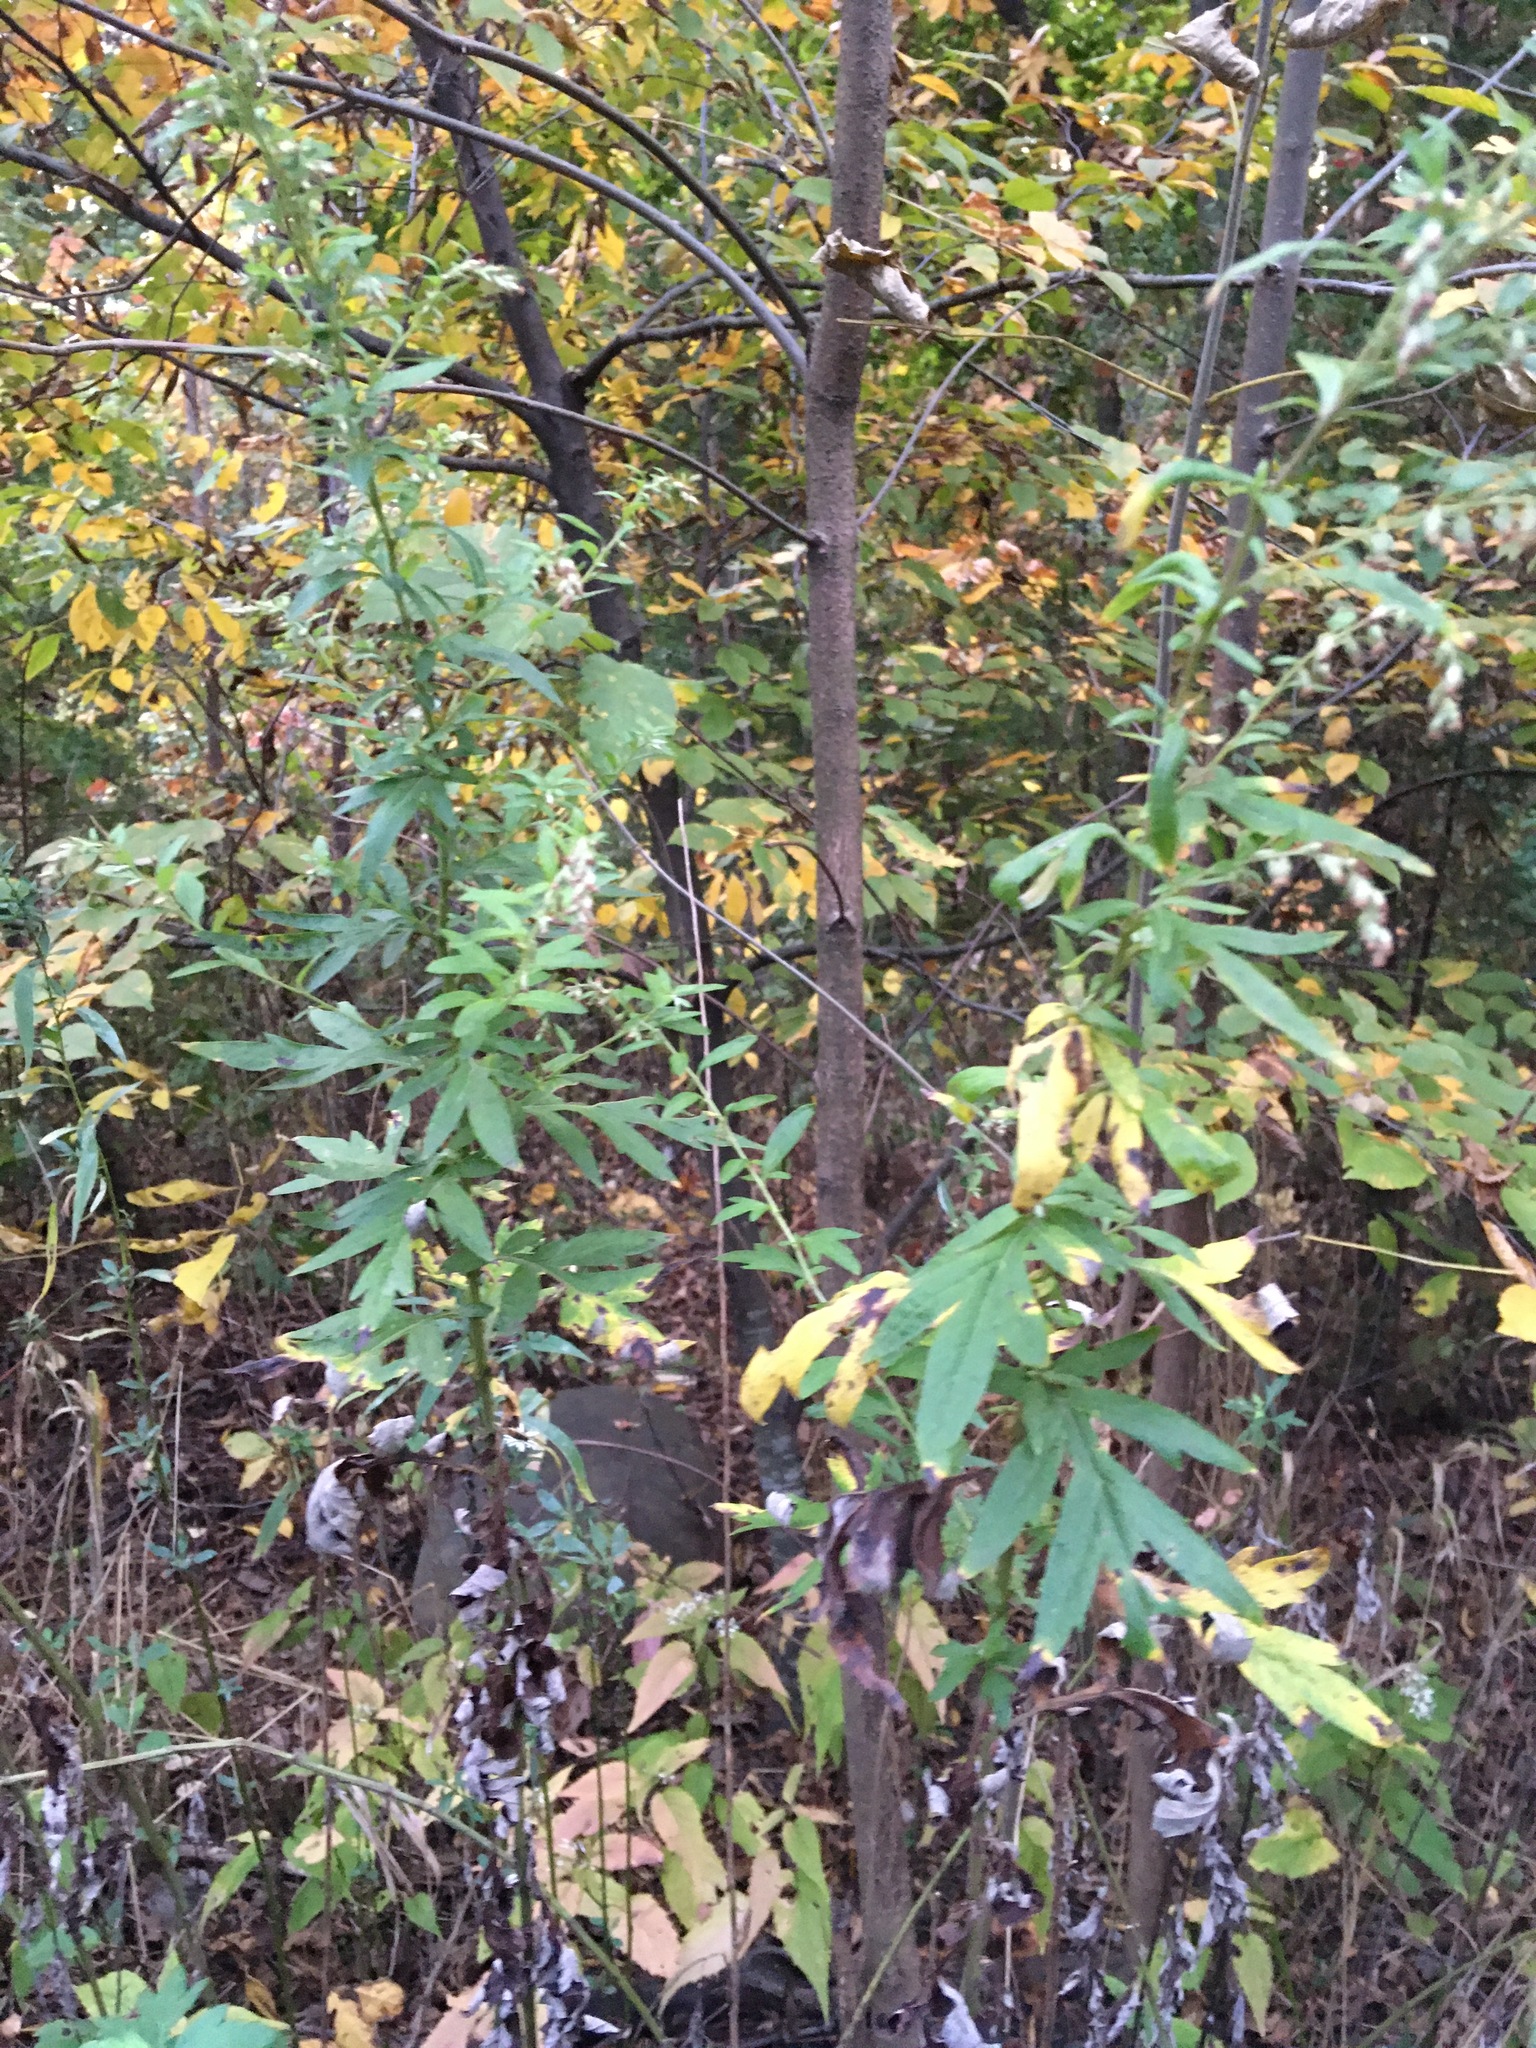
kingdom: Plantae
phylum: Tracheophyta
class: Magnoliopsida
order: Asterales
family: Asteraceae
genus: Artemisia
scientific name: Artemisia vulgaris
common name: Mugwort
